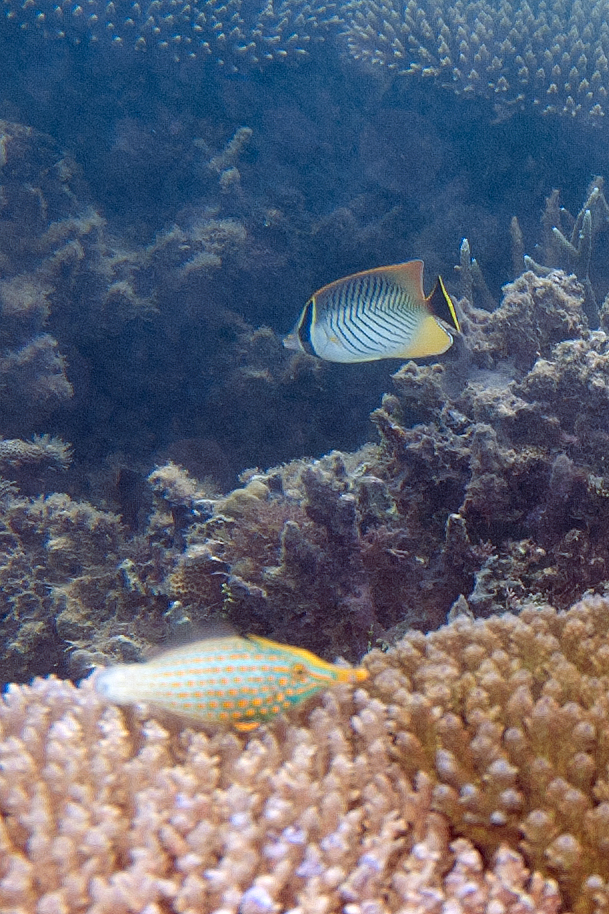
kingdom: Animalia
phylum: Chordata
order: Tetraodontiformes
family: Monacanthidae
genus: Oxymonacanthus
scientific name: Oxymonacanthus longirostris
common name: Beaked leatherjacket
